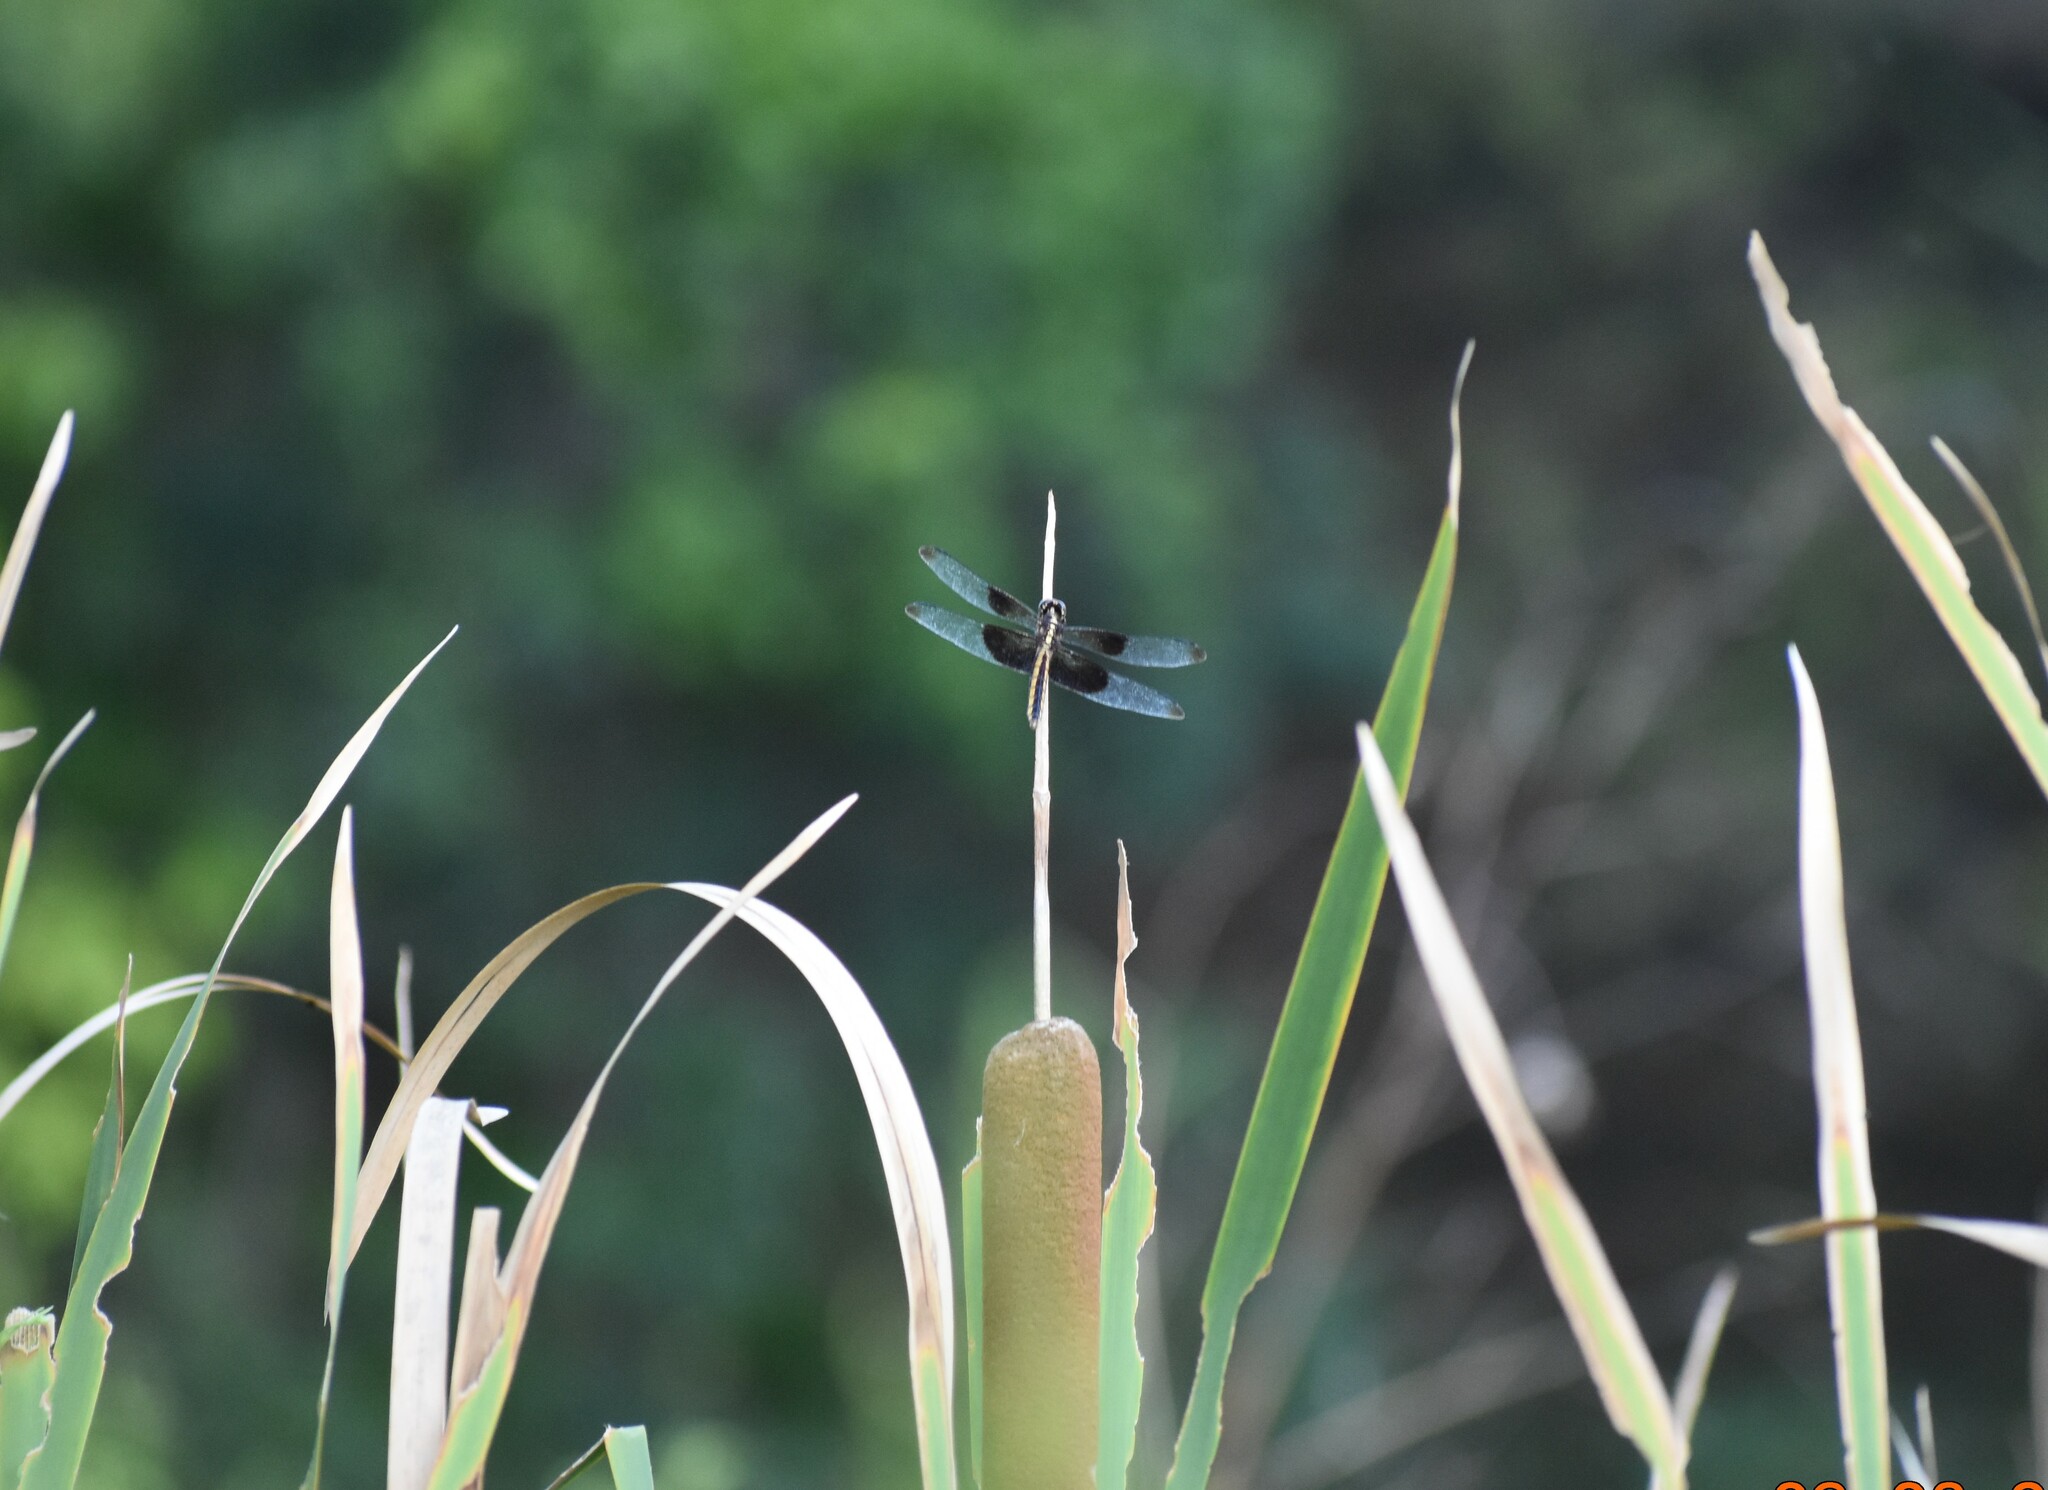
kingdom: Animalia
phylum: Arthropoda
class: Insecta
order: Odonata
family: Libellulidae
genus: Libellula
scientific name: Libellula luctuosa
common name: Widow skimmer
